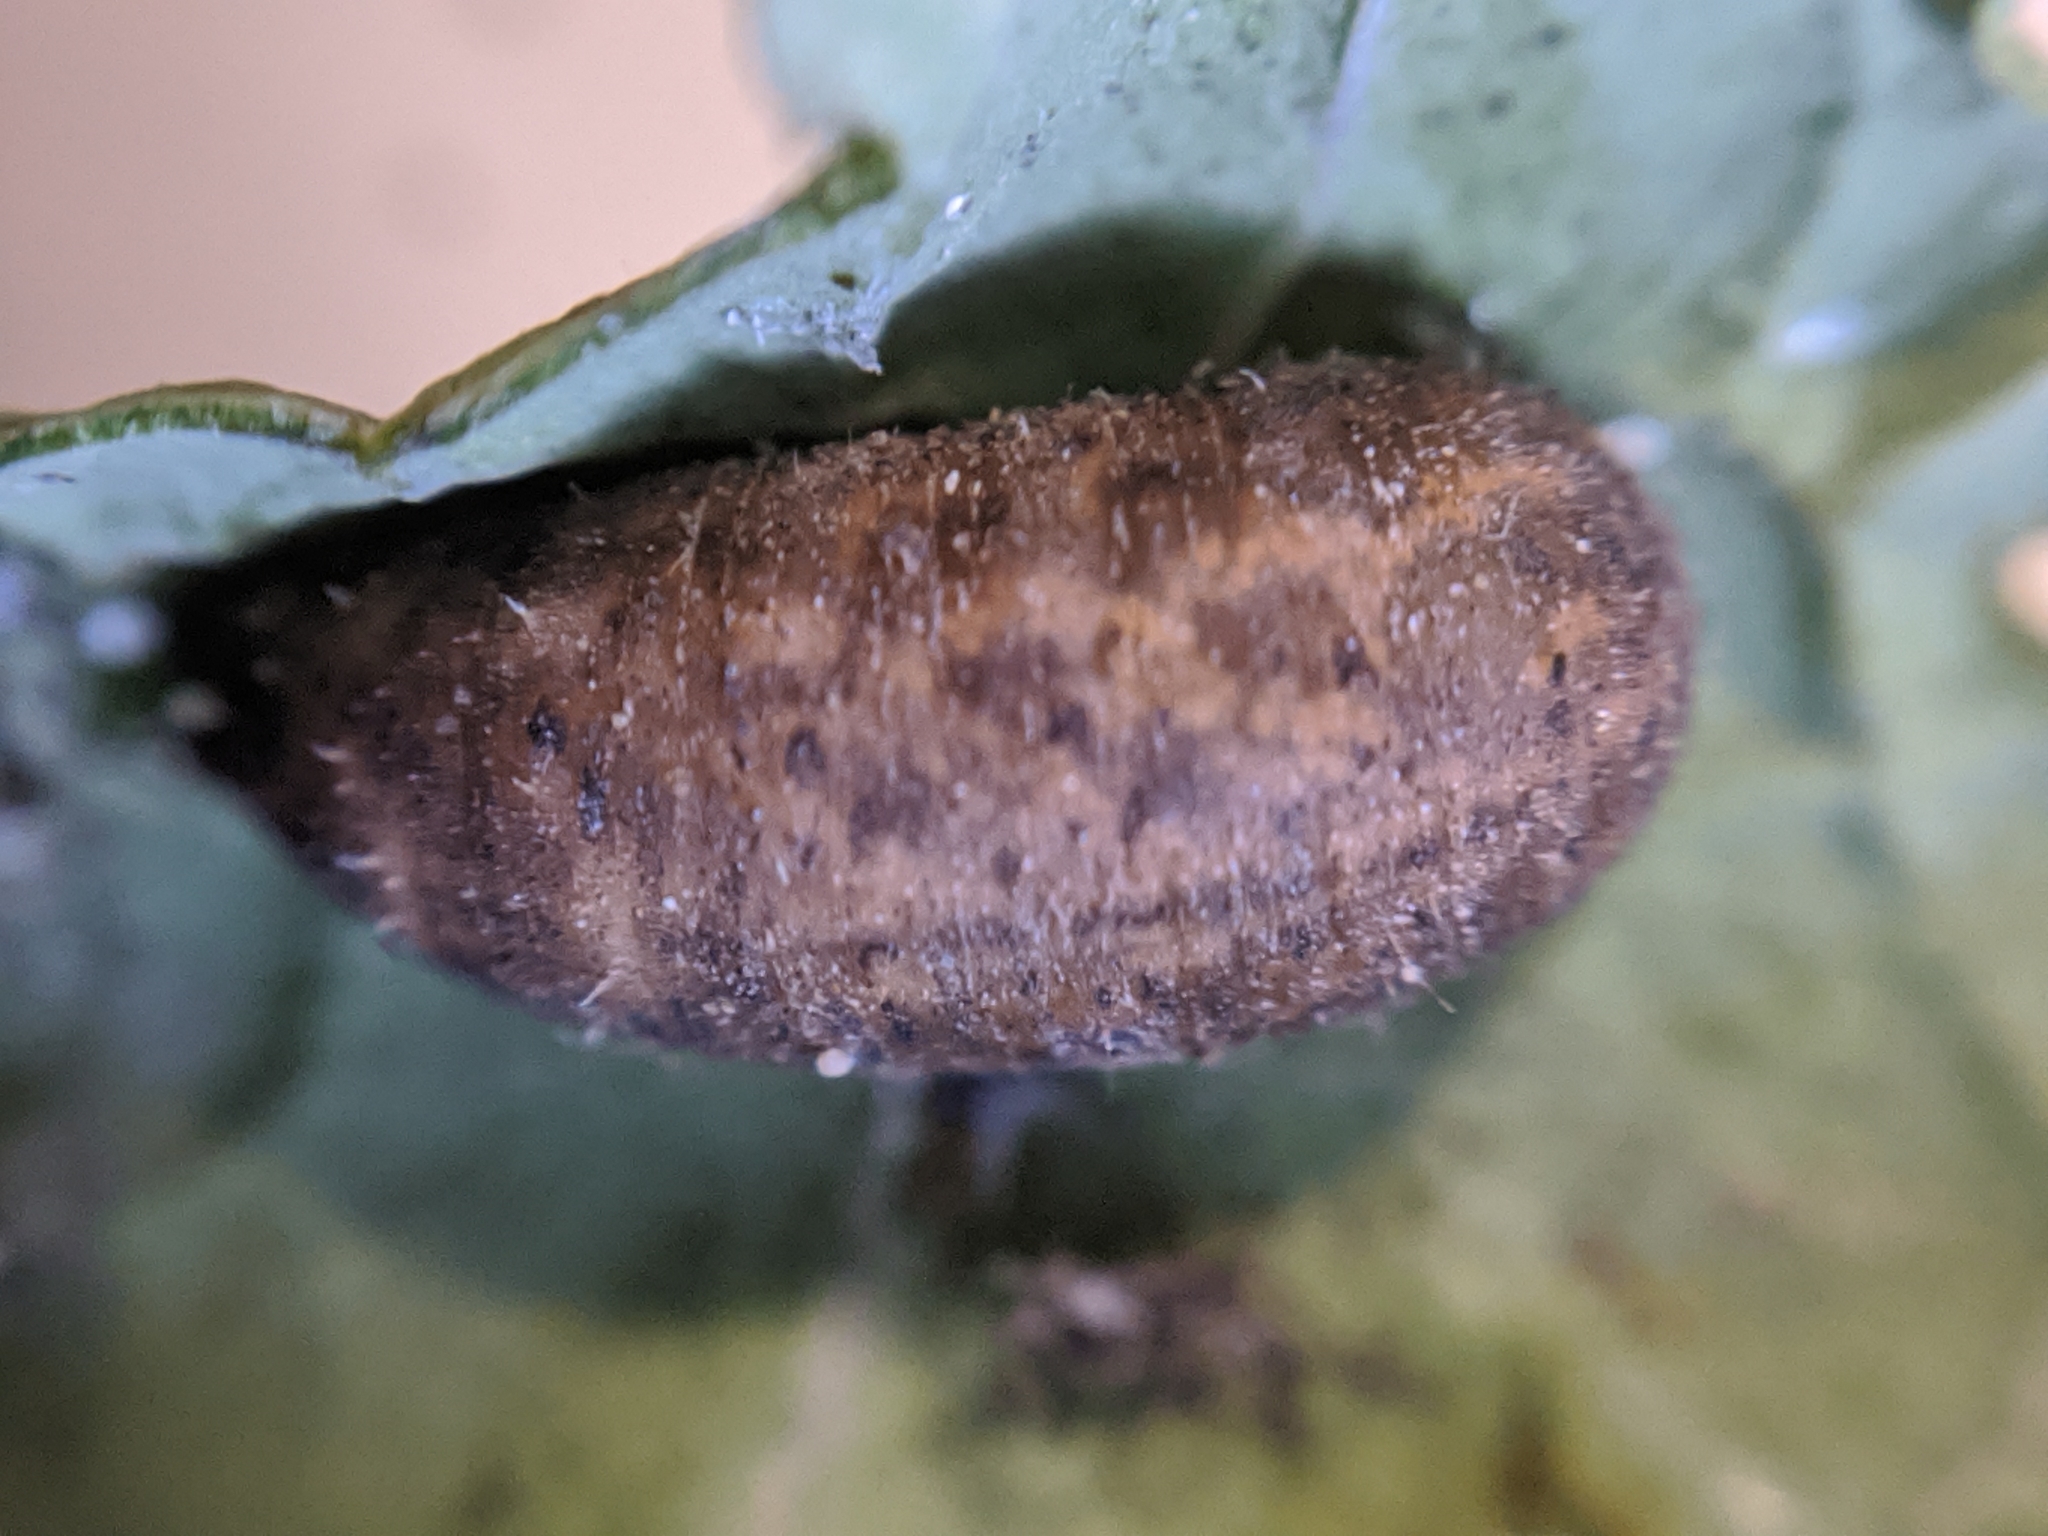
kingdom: Animalia
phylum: Arthropoda
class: Insecta
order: Diptera
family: Syrphidae
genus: Eupeodes
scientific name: Eupeodes fumipennis
